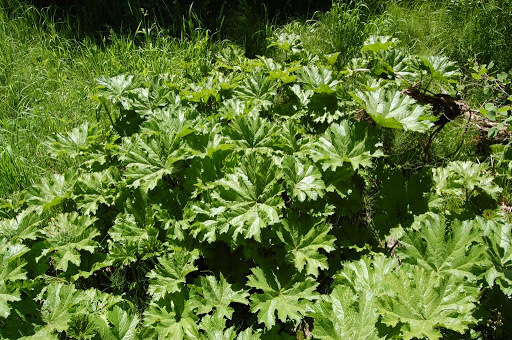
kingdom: Plantae
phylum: Tracheophyta
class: Magnoliopsida
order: Saxifragales
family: Saxifragaceae
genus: Darmera
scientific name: Darmera peltata
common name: Indian-rhubarb
